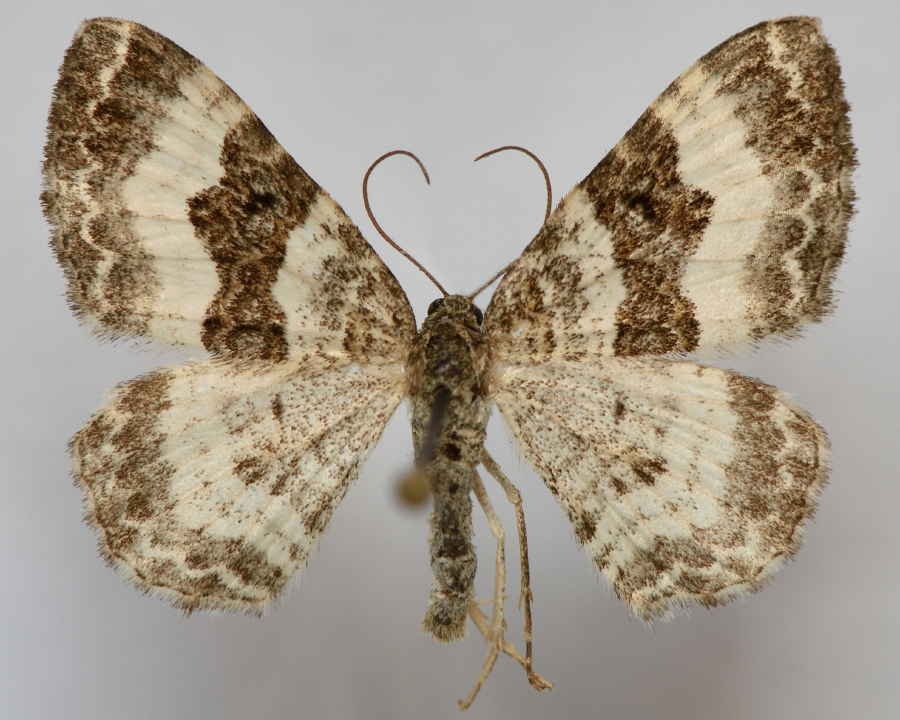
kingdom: Animalia
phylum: Arthropoda
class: Insecta
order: Lepidoptera
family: Geometridae
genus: Epirrhoe
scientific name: Epirrhoe rivata
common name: Wood carpet
